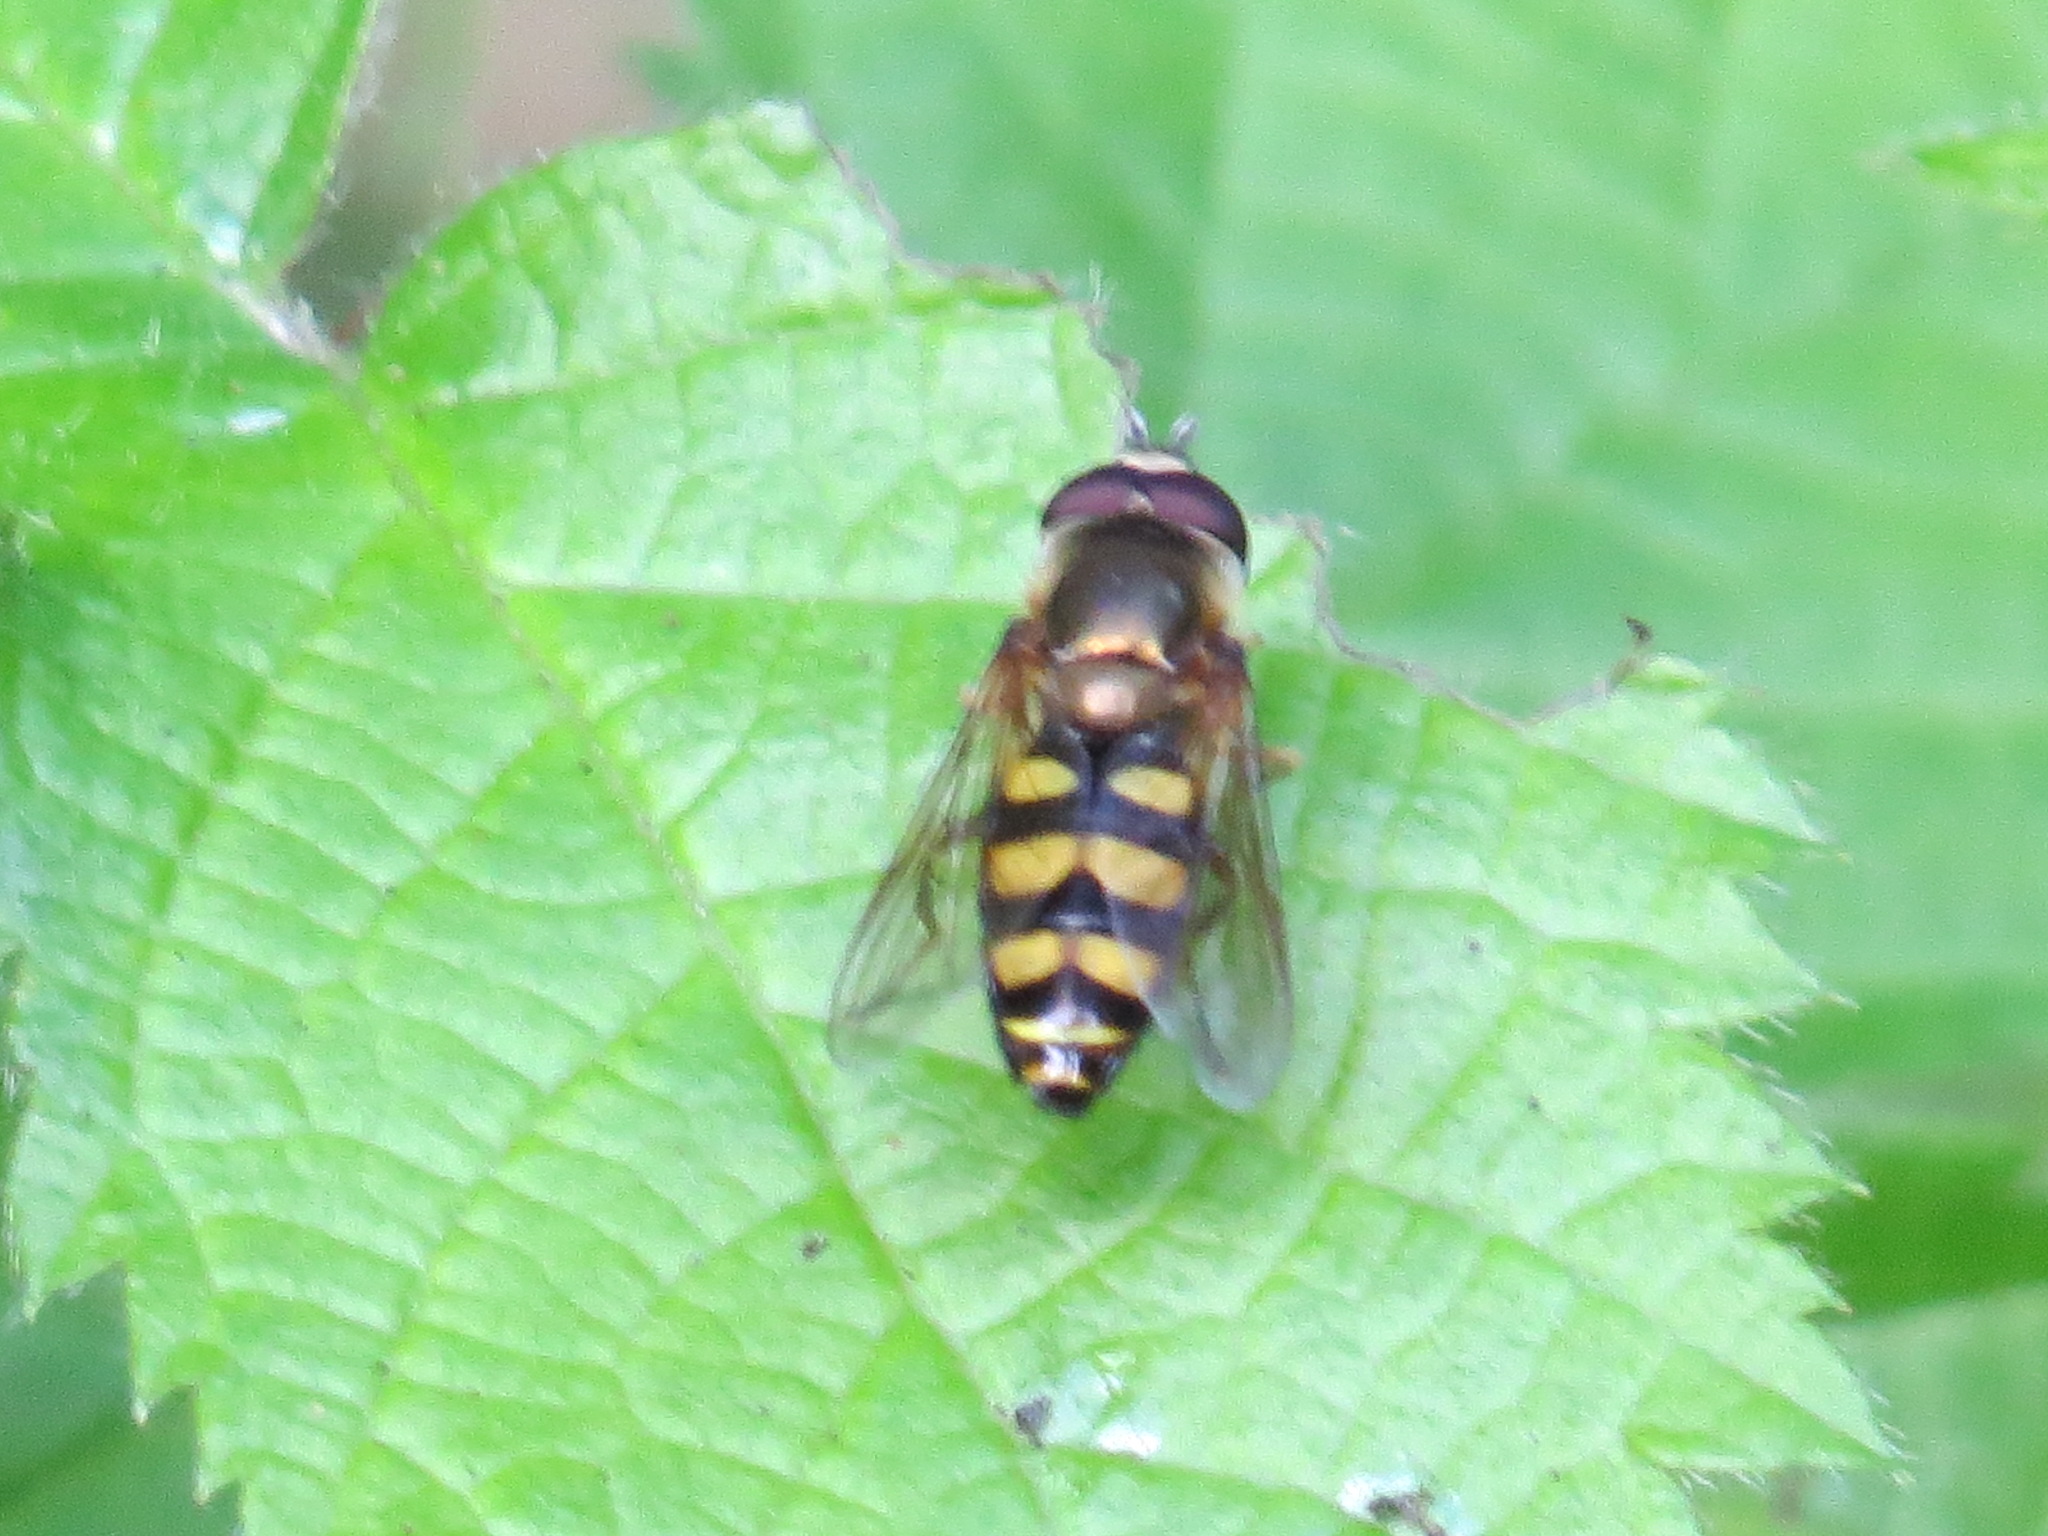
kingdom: Animalia
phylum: Arthropoda
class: Insecta
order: Diptera
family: Syrphidae
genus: Eupeodes
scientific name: Eupeodes fumipennis
